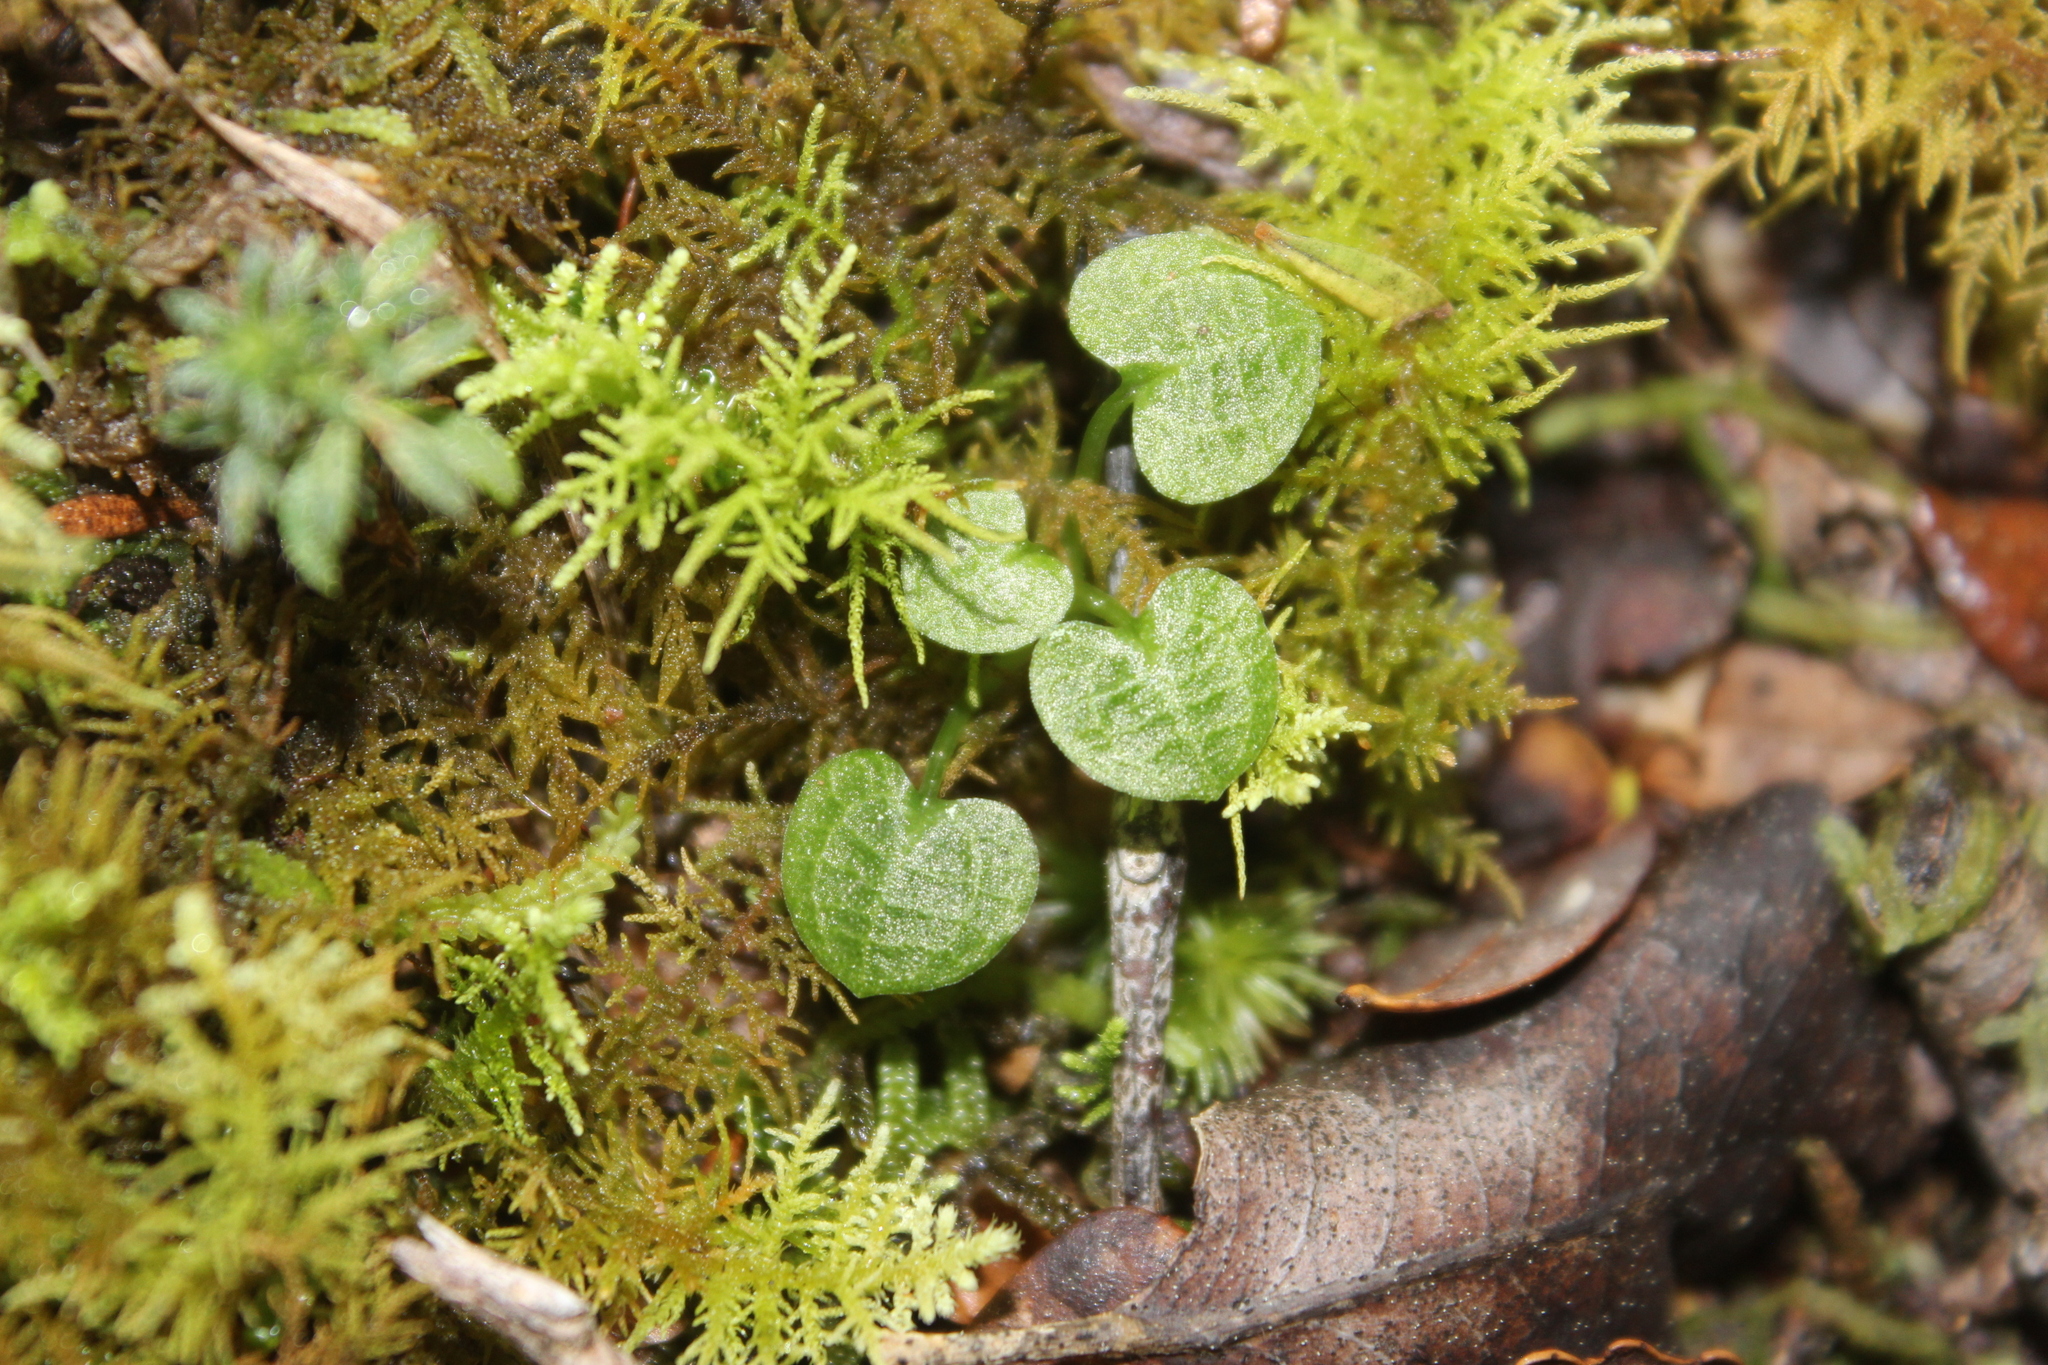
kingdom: Plantae
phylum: Tracheophyta
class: Liliopsida
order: Asparagales
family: Orchidaceae
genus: Pterostylis
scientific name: Pterostylis trullifolia
